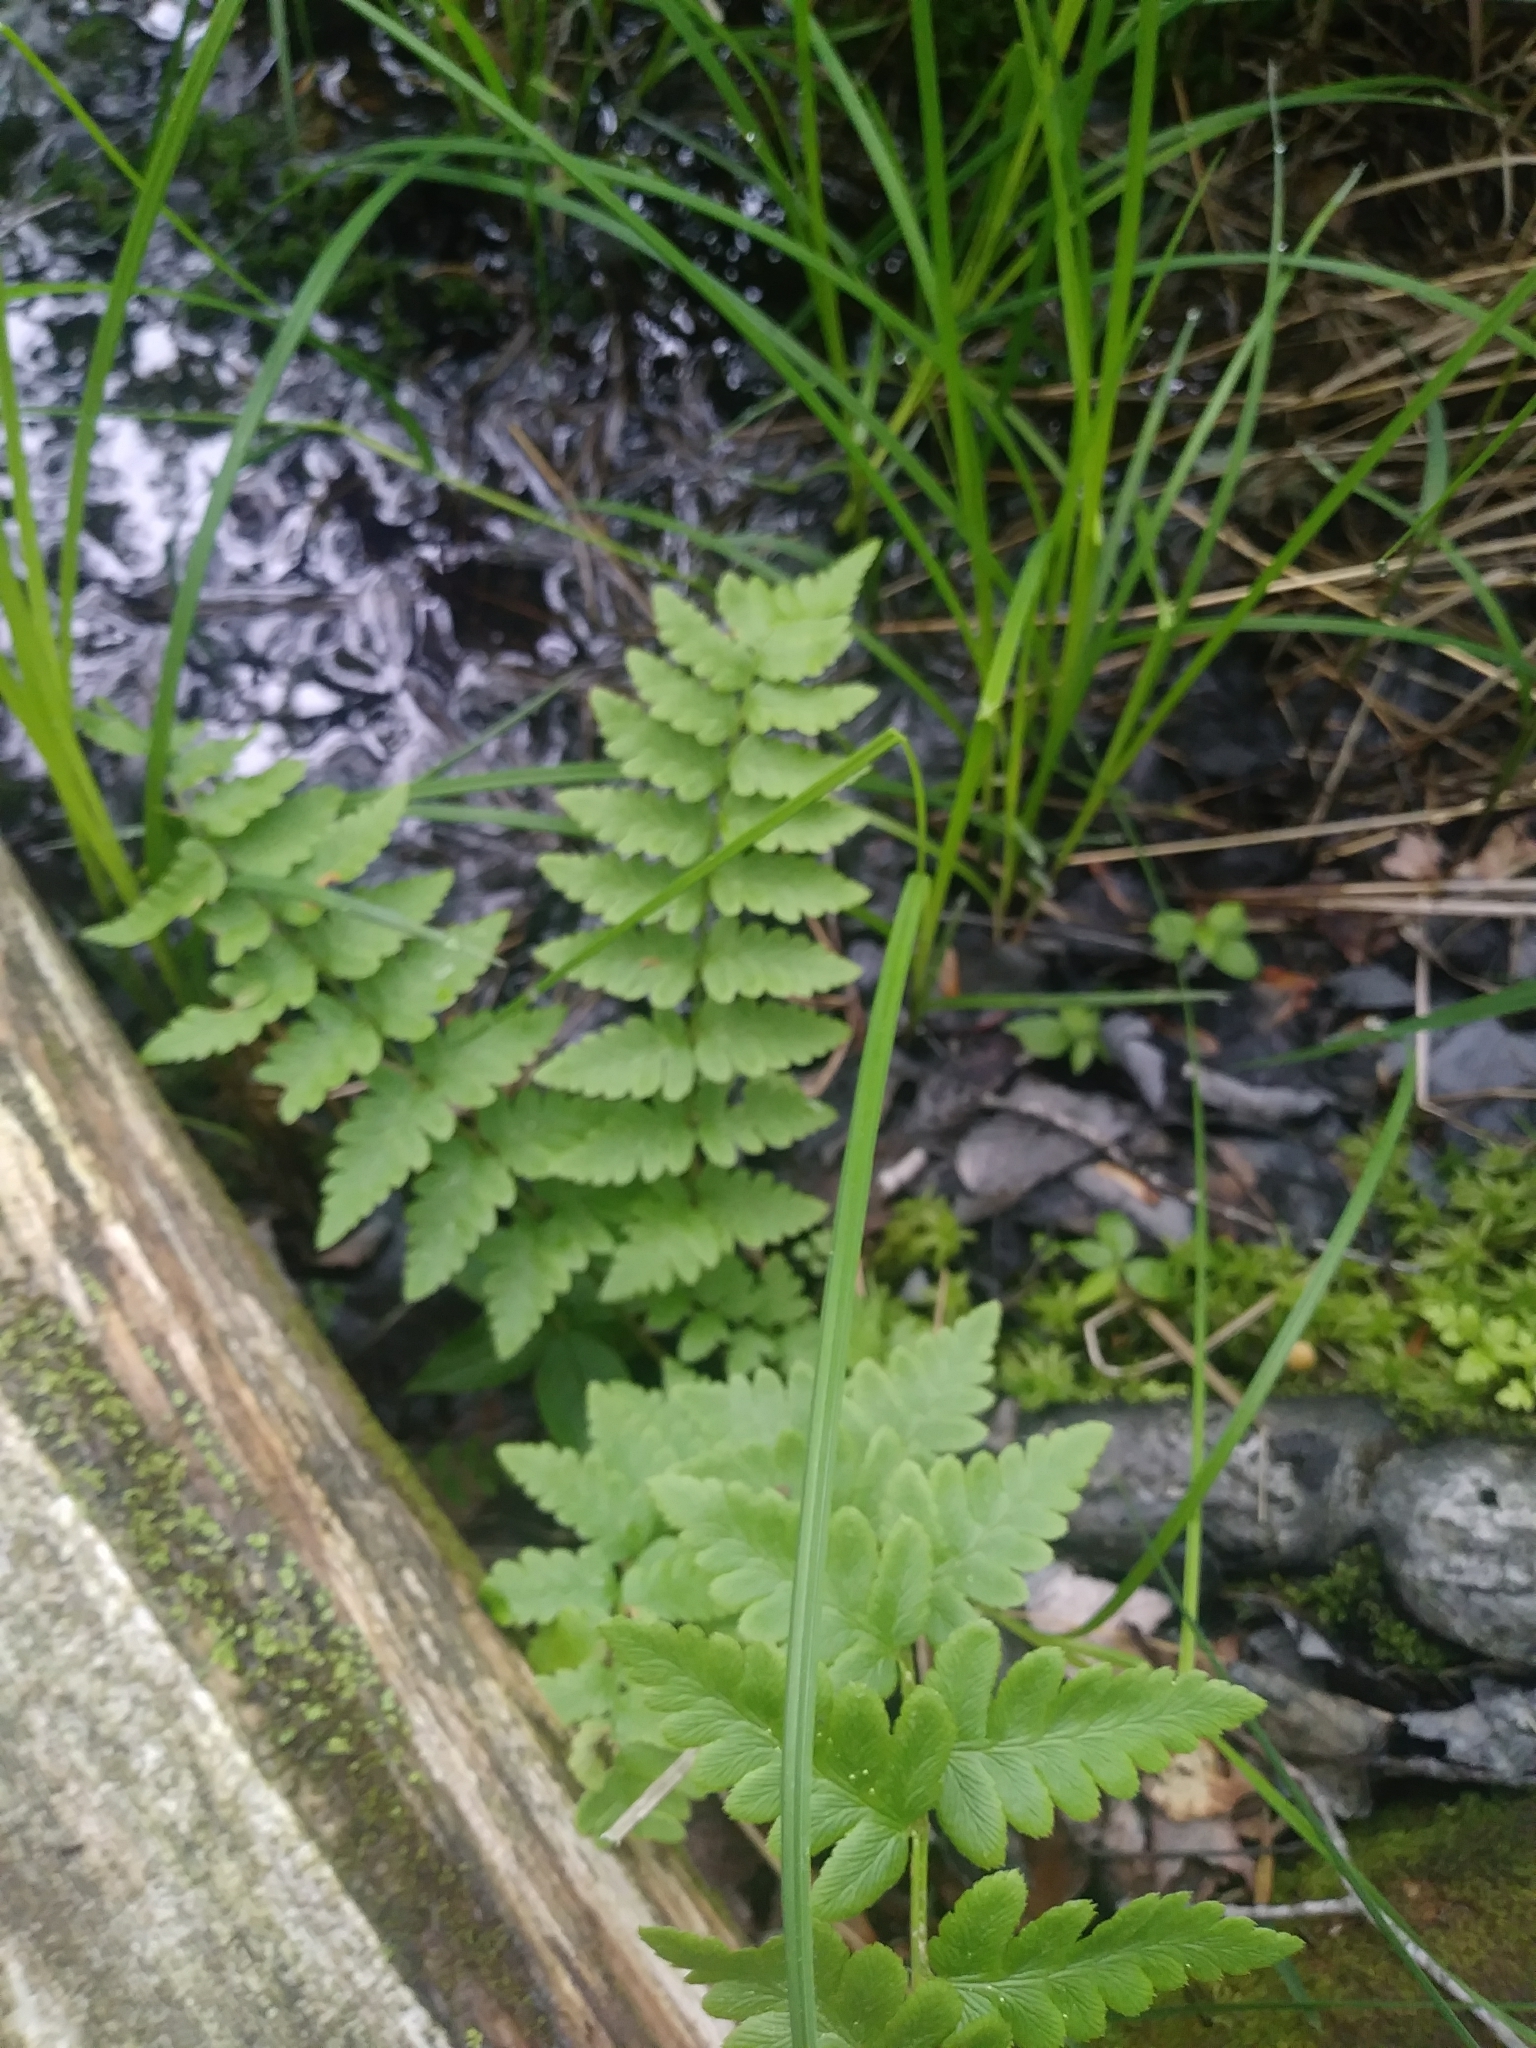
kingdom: Plantae
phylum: Tracheophyta
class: Polypodiopsida
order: Polypodiales
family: Dryopteridaceae
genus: Dryopteris
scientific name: Dryopteris cristata
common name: Crested wood fern
